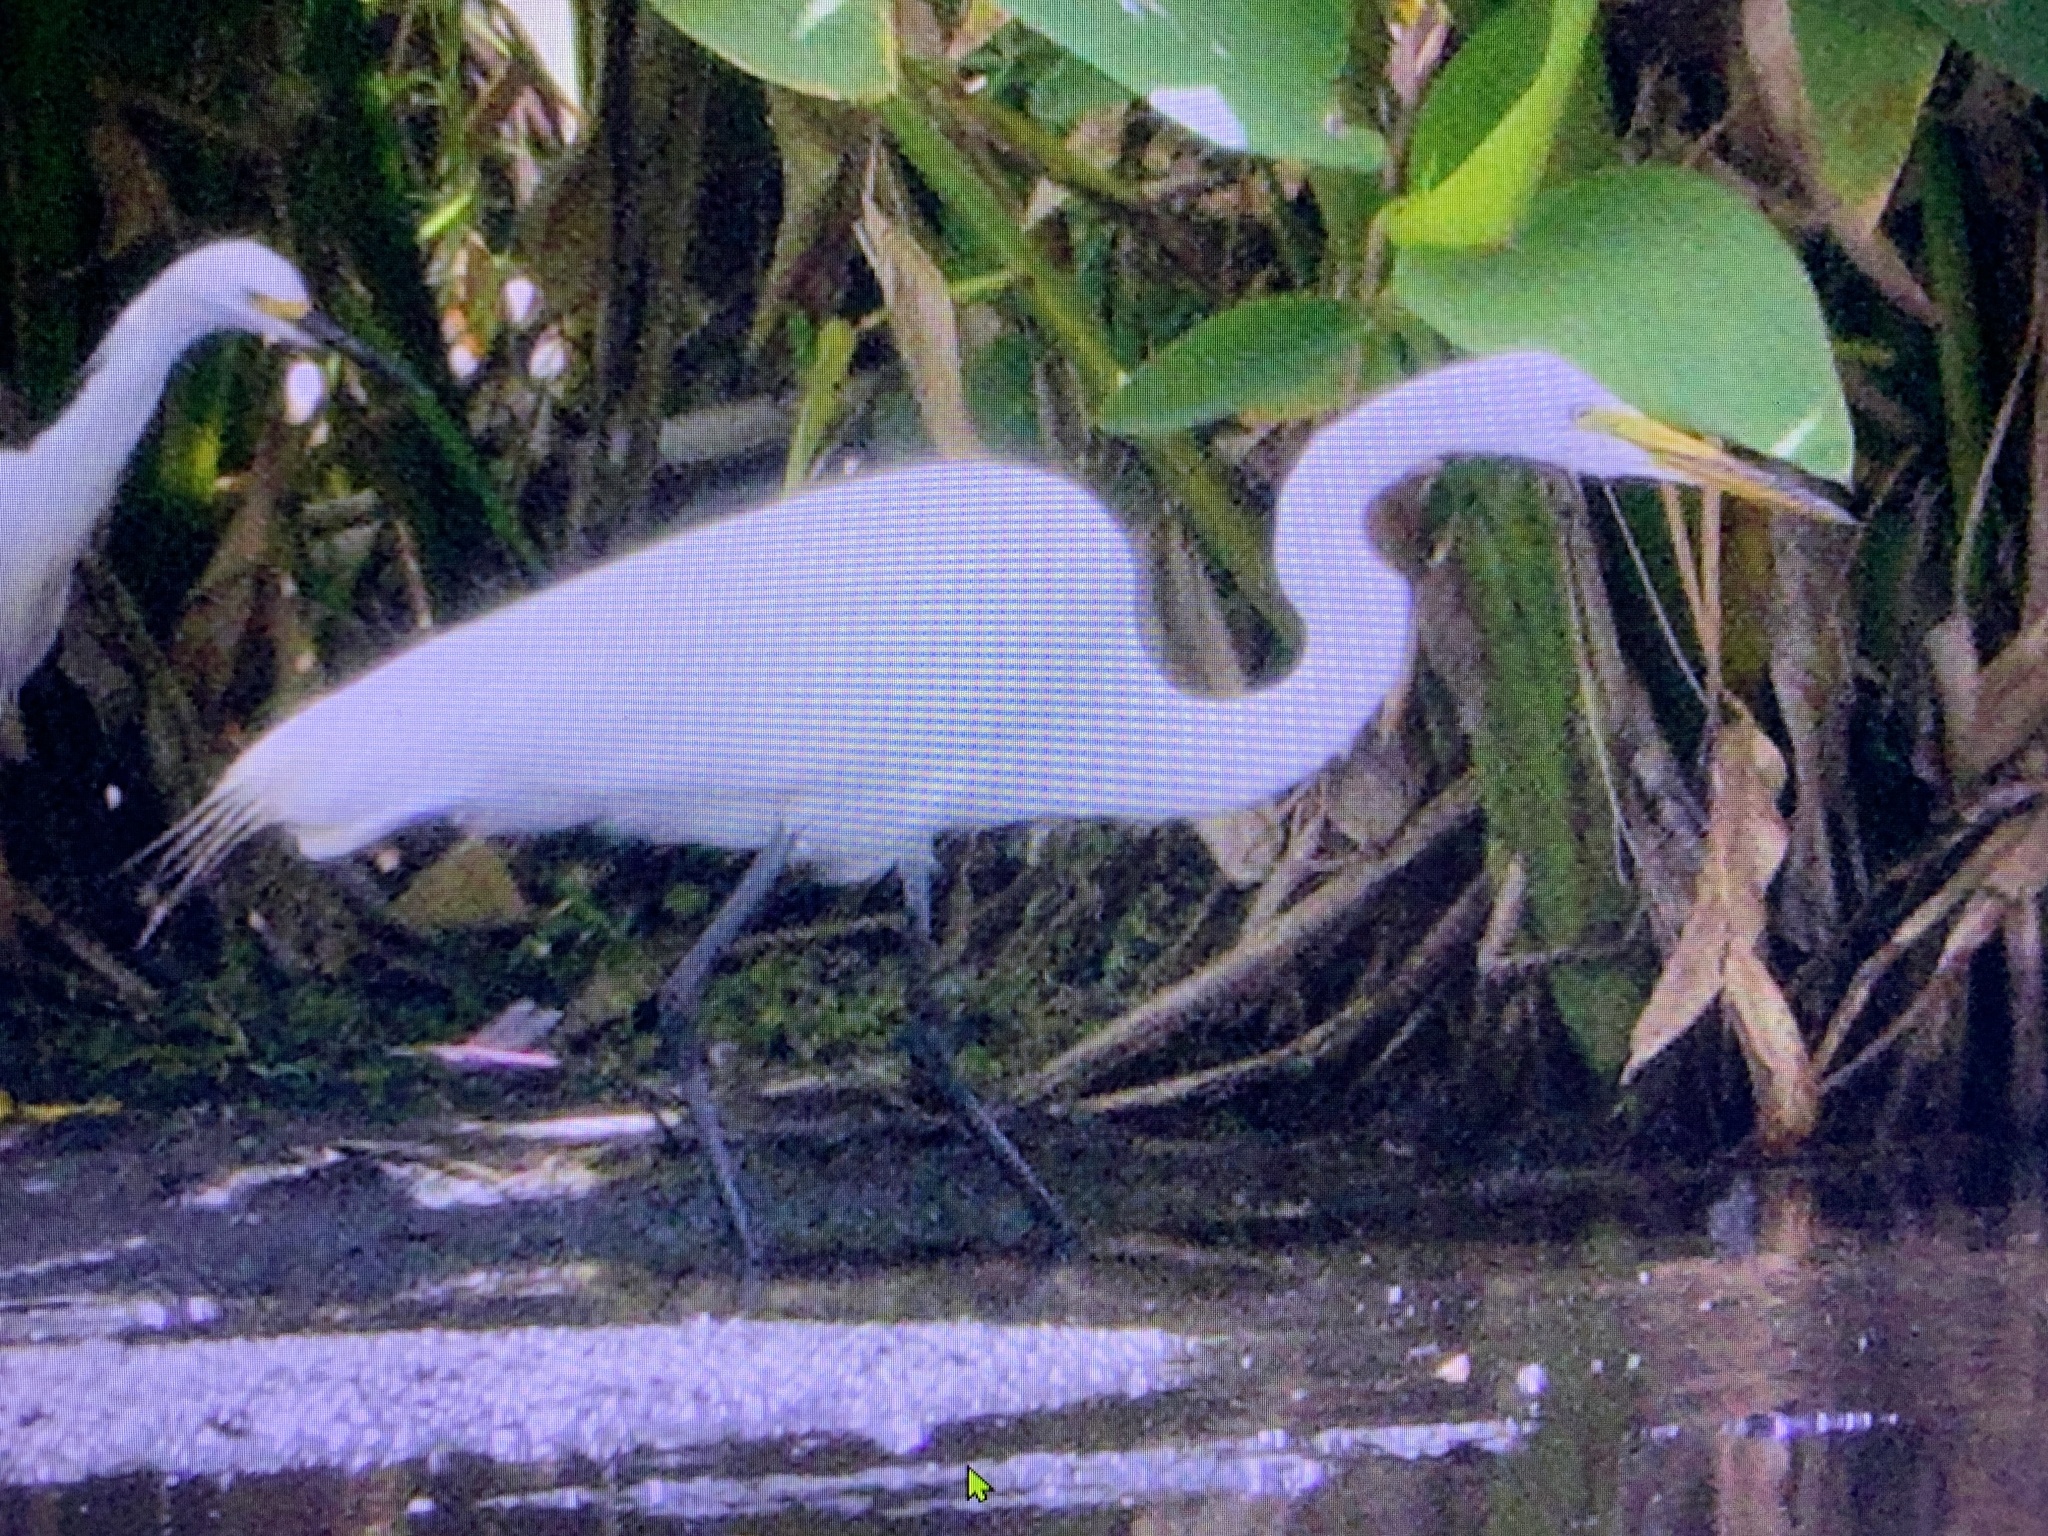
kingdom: Animalia
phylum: Chordata
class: Aves
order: Pelecaniformes
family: Ardeidae
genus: Ardea
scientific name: Ardea alba
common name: Great egret
